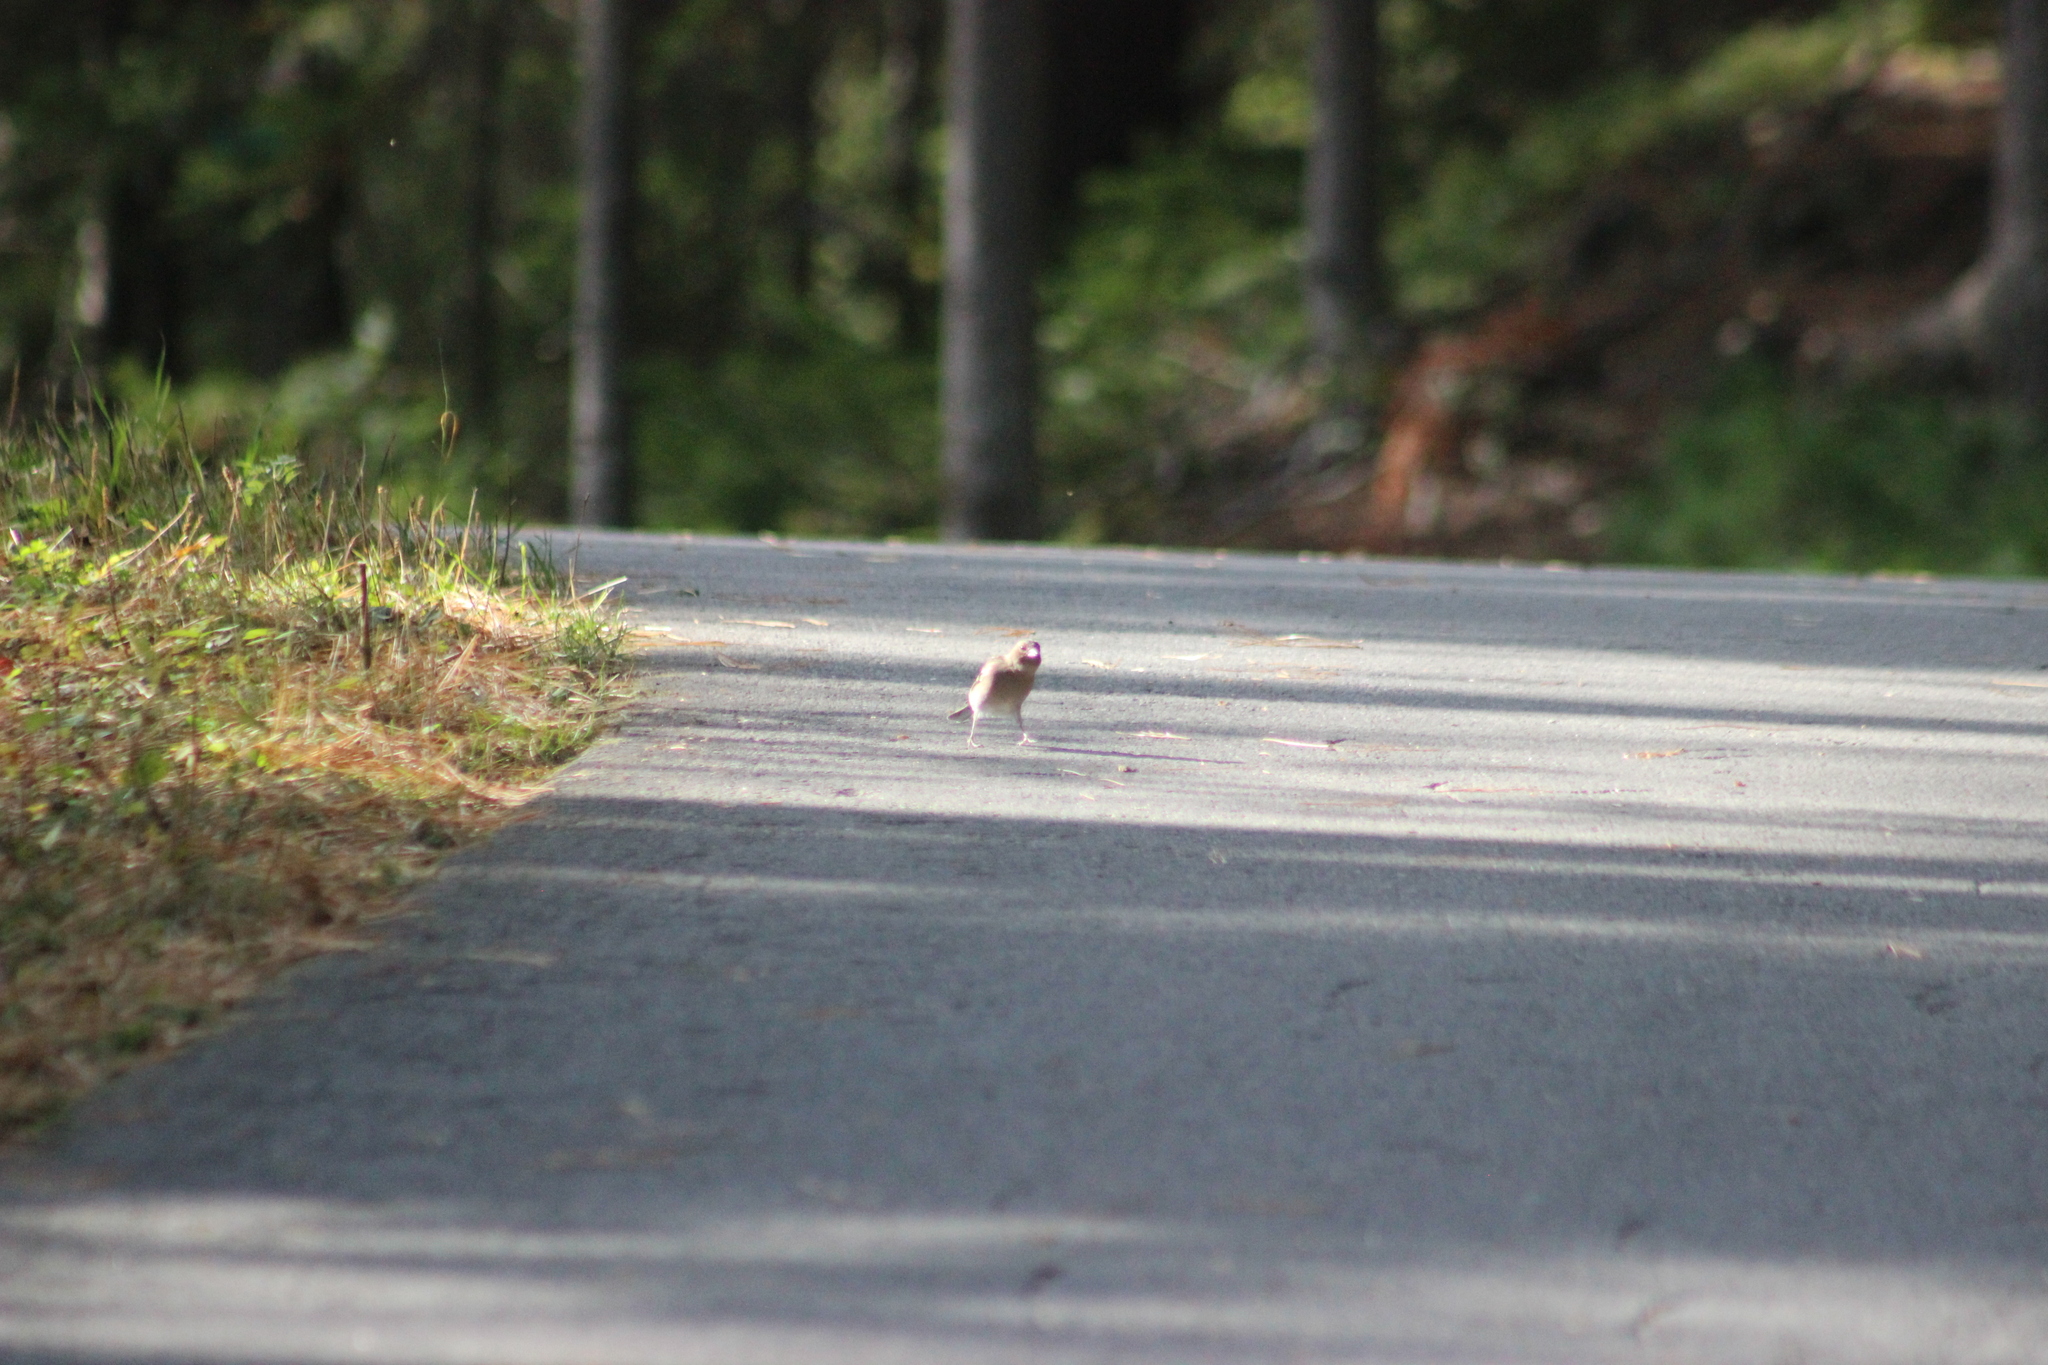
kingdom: Animalia
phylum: Chordata
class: Aves
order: Passeriformes
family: Fringillidae
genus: Fringilla
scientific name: Fringilla coelebs
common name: Common chaffinch
